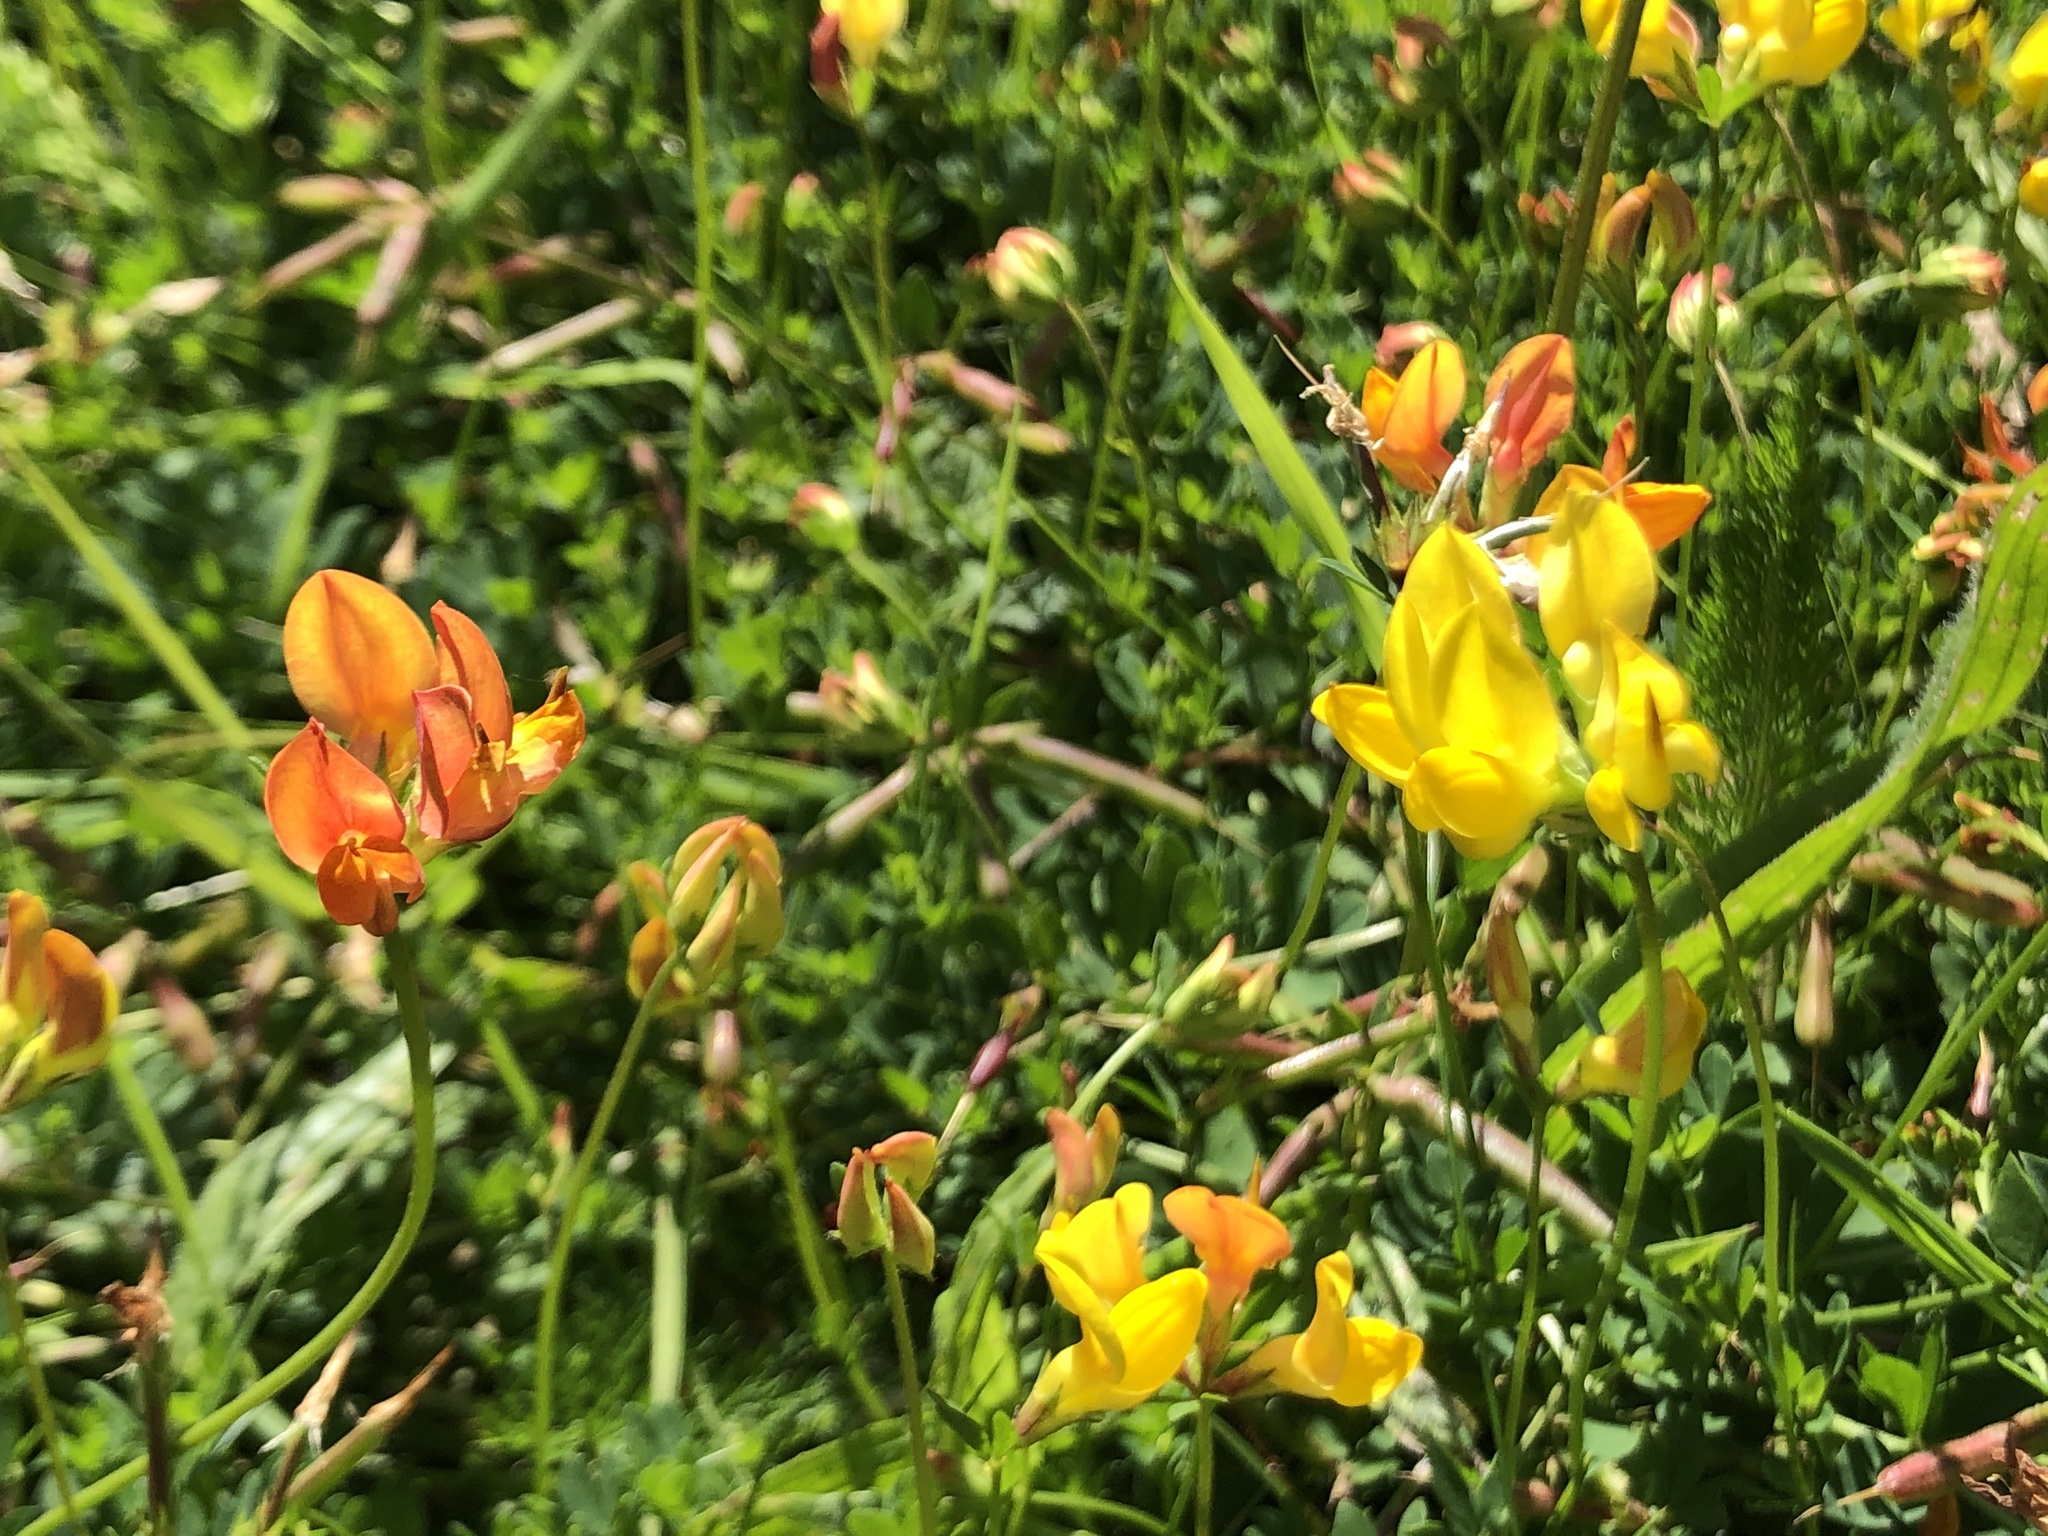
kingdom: Plantae
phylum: Tracheophyta
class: Magnoliopsida
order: Fabales
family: Fabaceae
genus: Lotus
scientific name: Lotus corniculatus
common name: Common bird's-foot-trefoil
